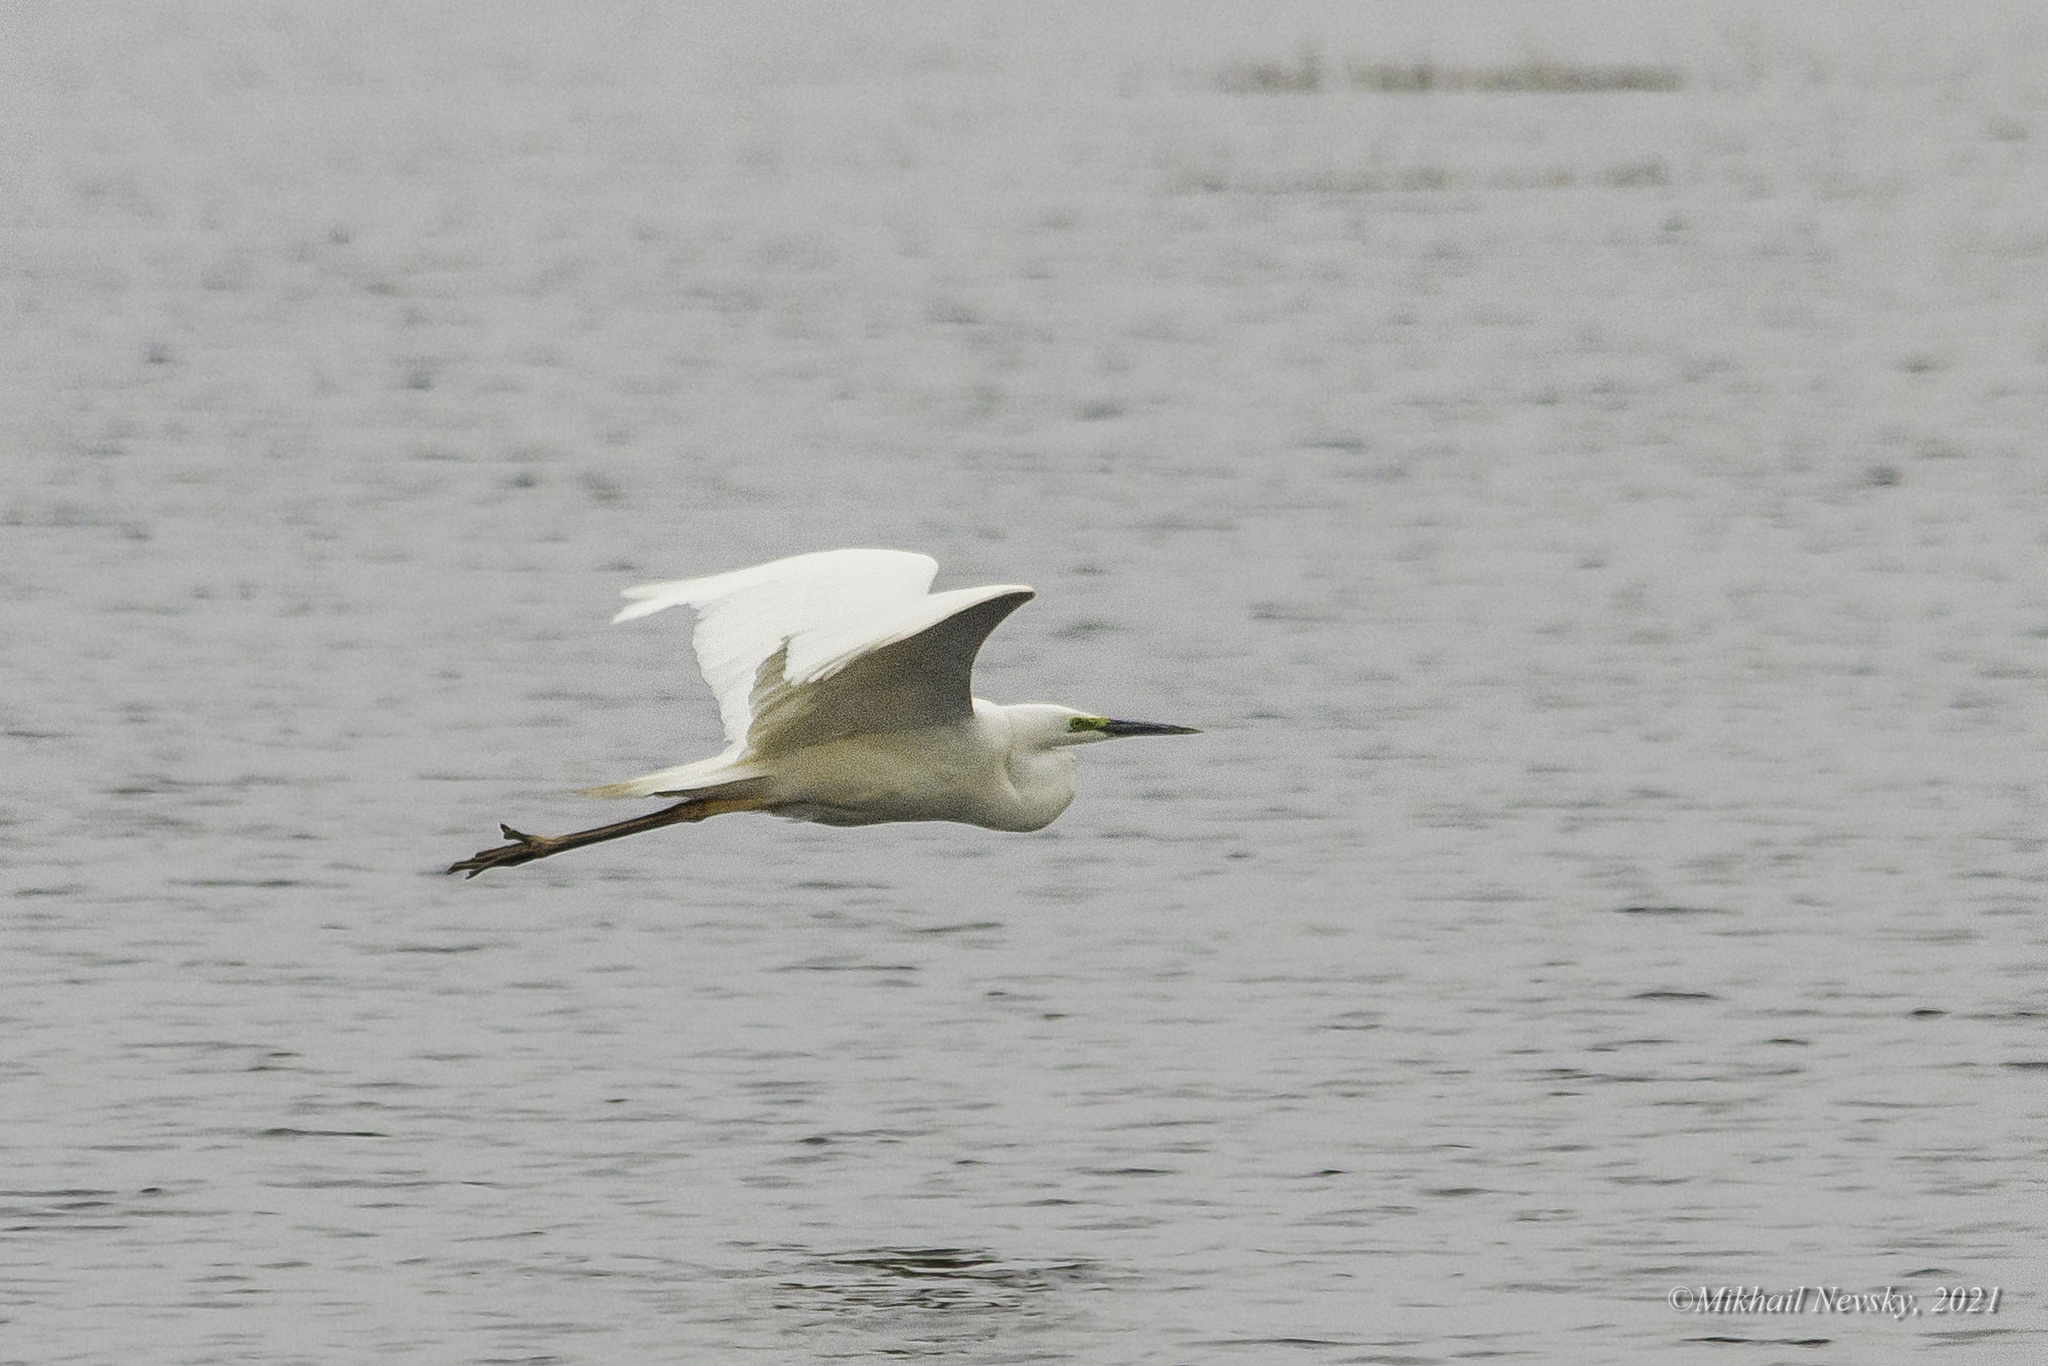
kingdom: Animalia
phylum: Chordata
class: Aves
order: Pelecaniformes
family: Ardeidae
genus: Ardea
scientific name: Ardea alba
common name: Great egret
